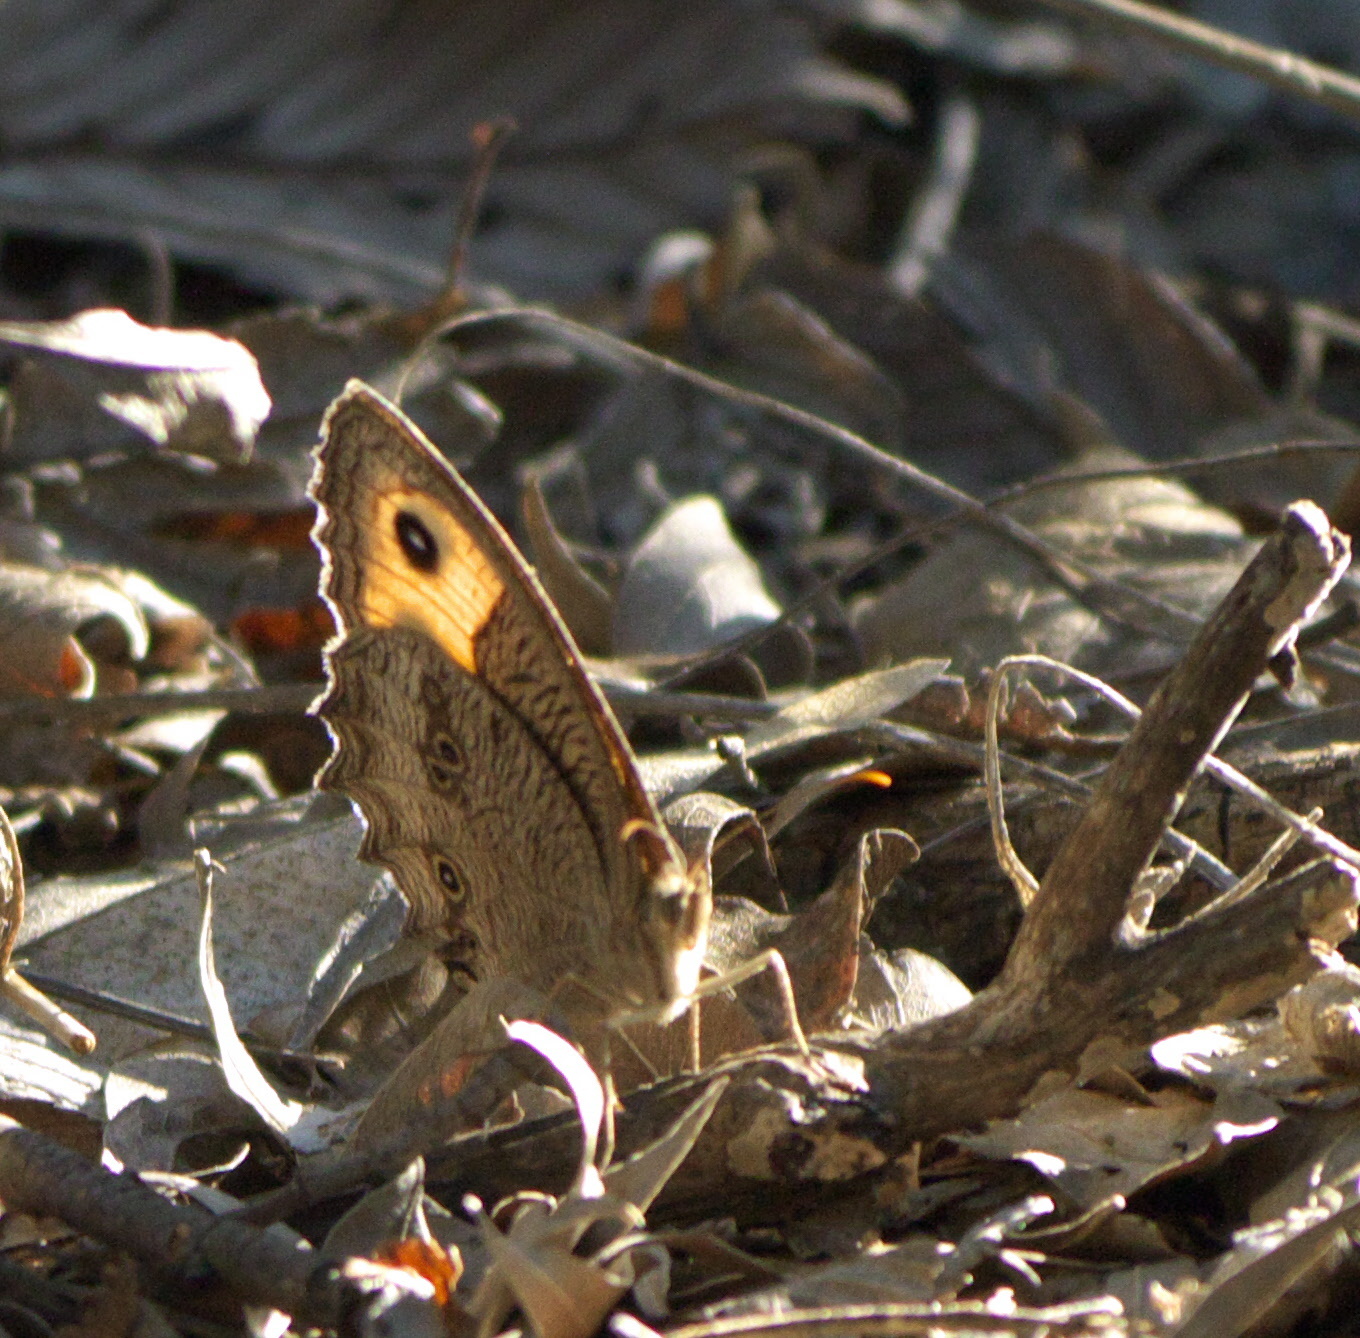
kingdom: Animalia
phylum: Arthropoda
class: Insecta
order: Lepidoptera
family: Nymphalidae
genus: Cercyonis
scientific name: Cercyonis pegala
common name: Common wood-nymph
